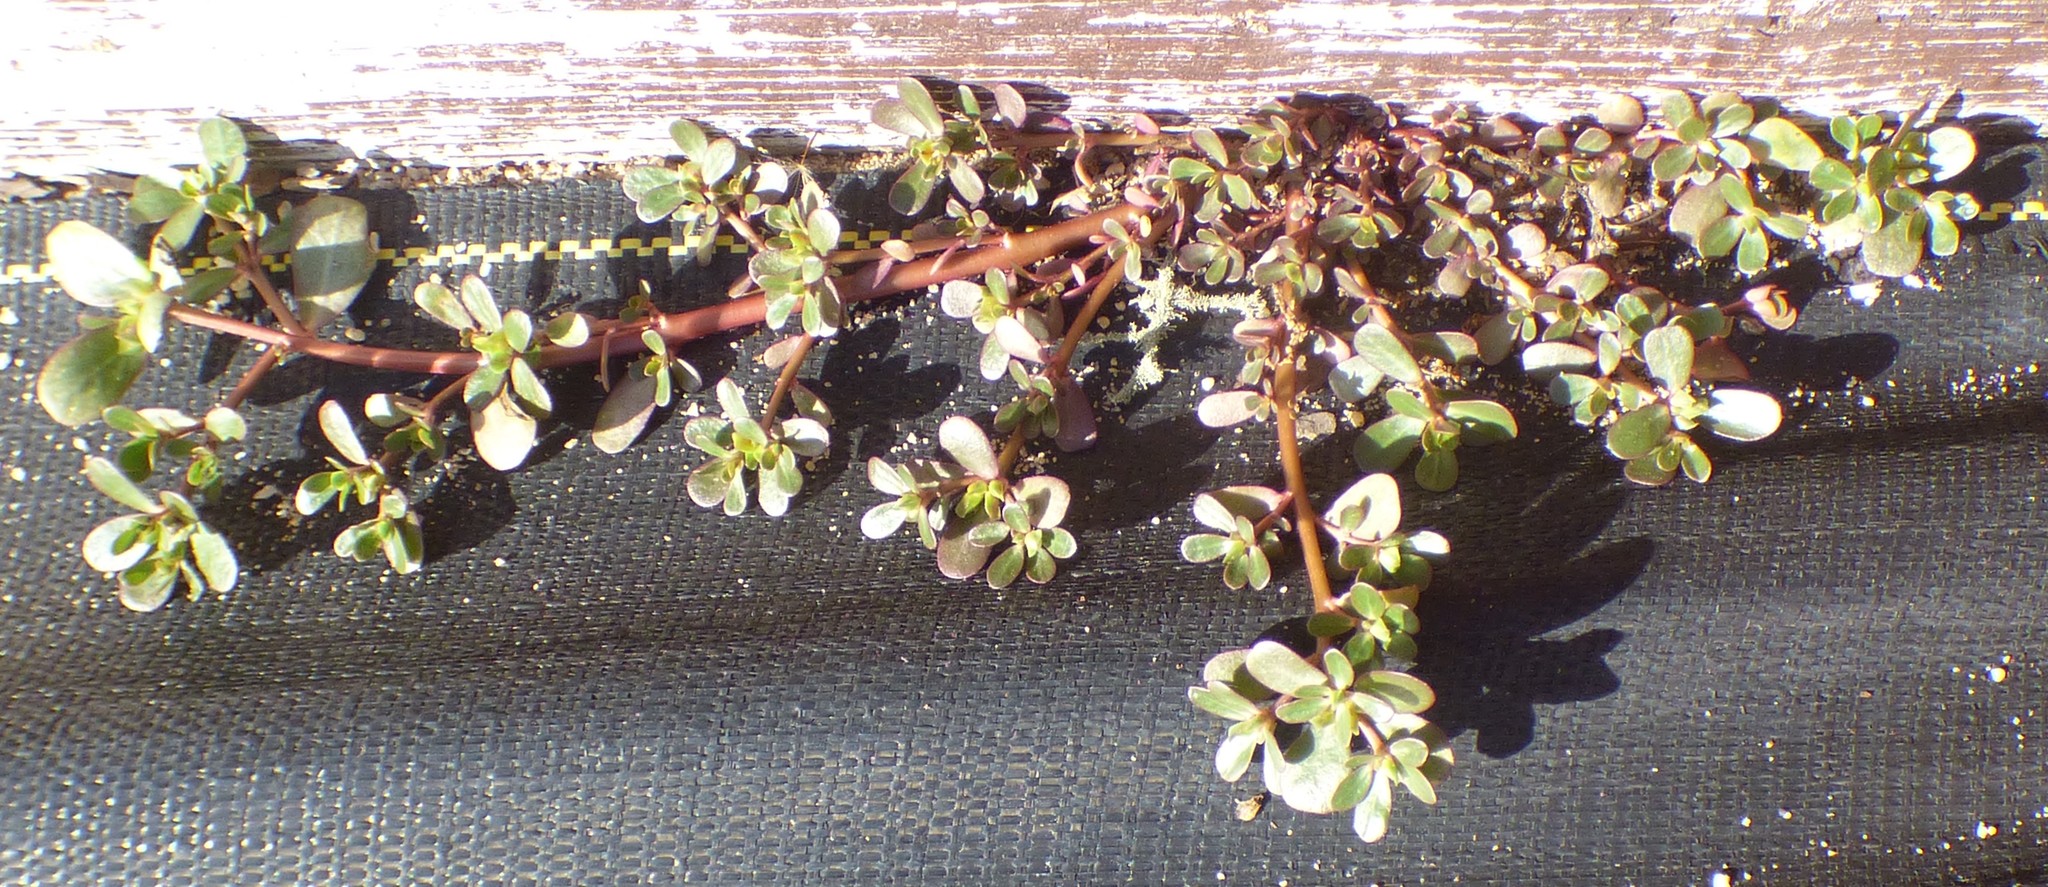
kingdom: Plantae
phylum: Tracheophyta
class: Magnoliopsida
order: Caryophyllales
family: Portulacaceae
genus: Portulaca
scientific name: Portulaca oleracea
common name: Common purslane
